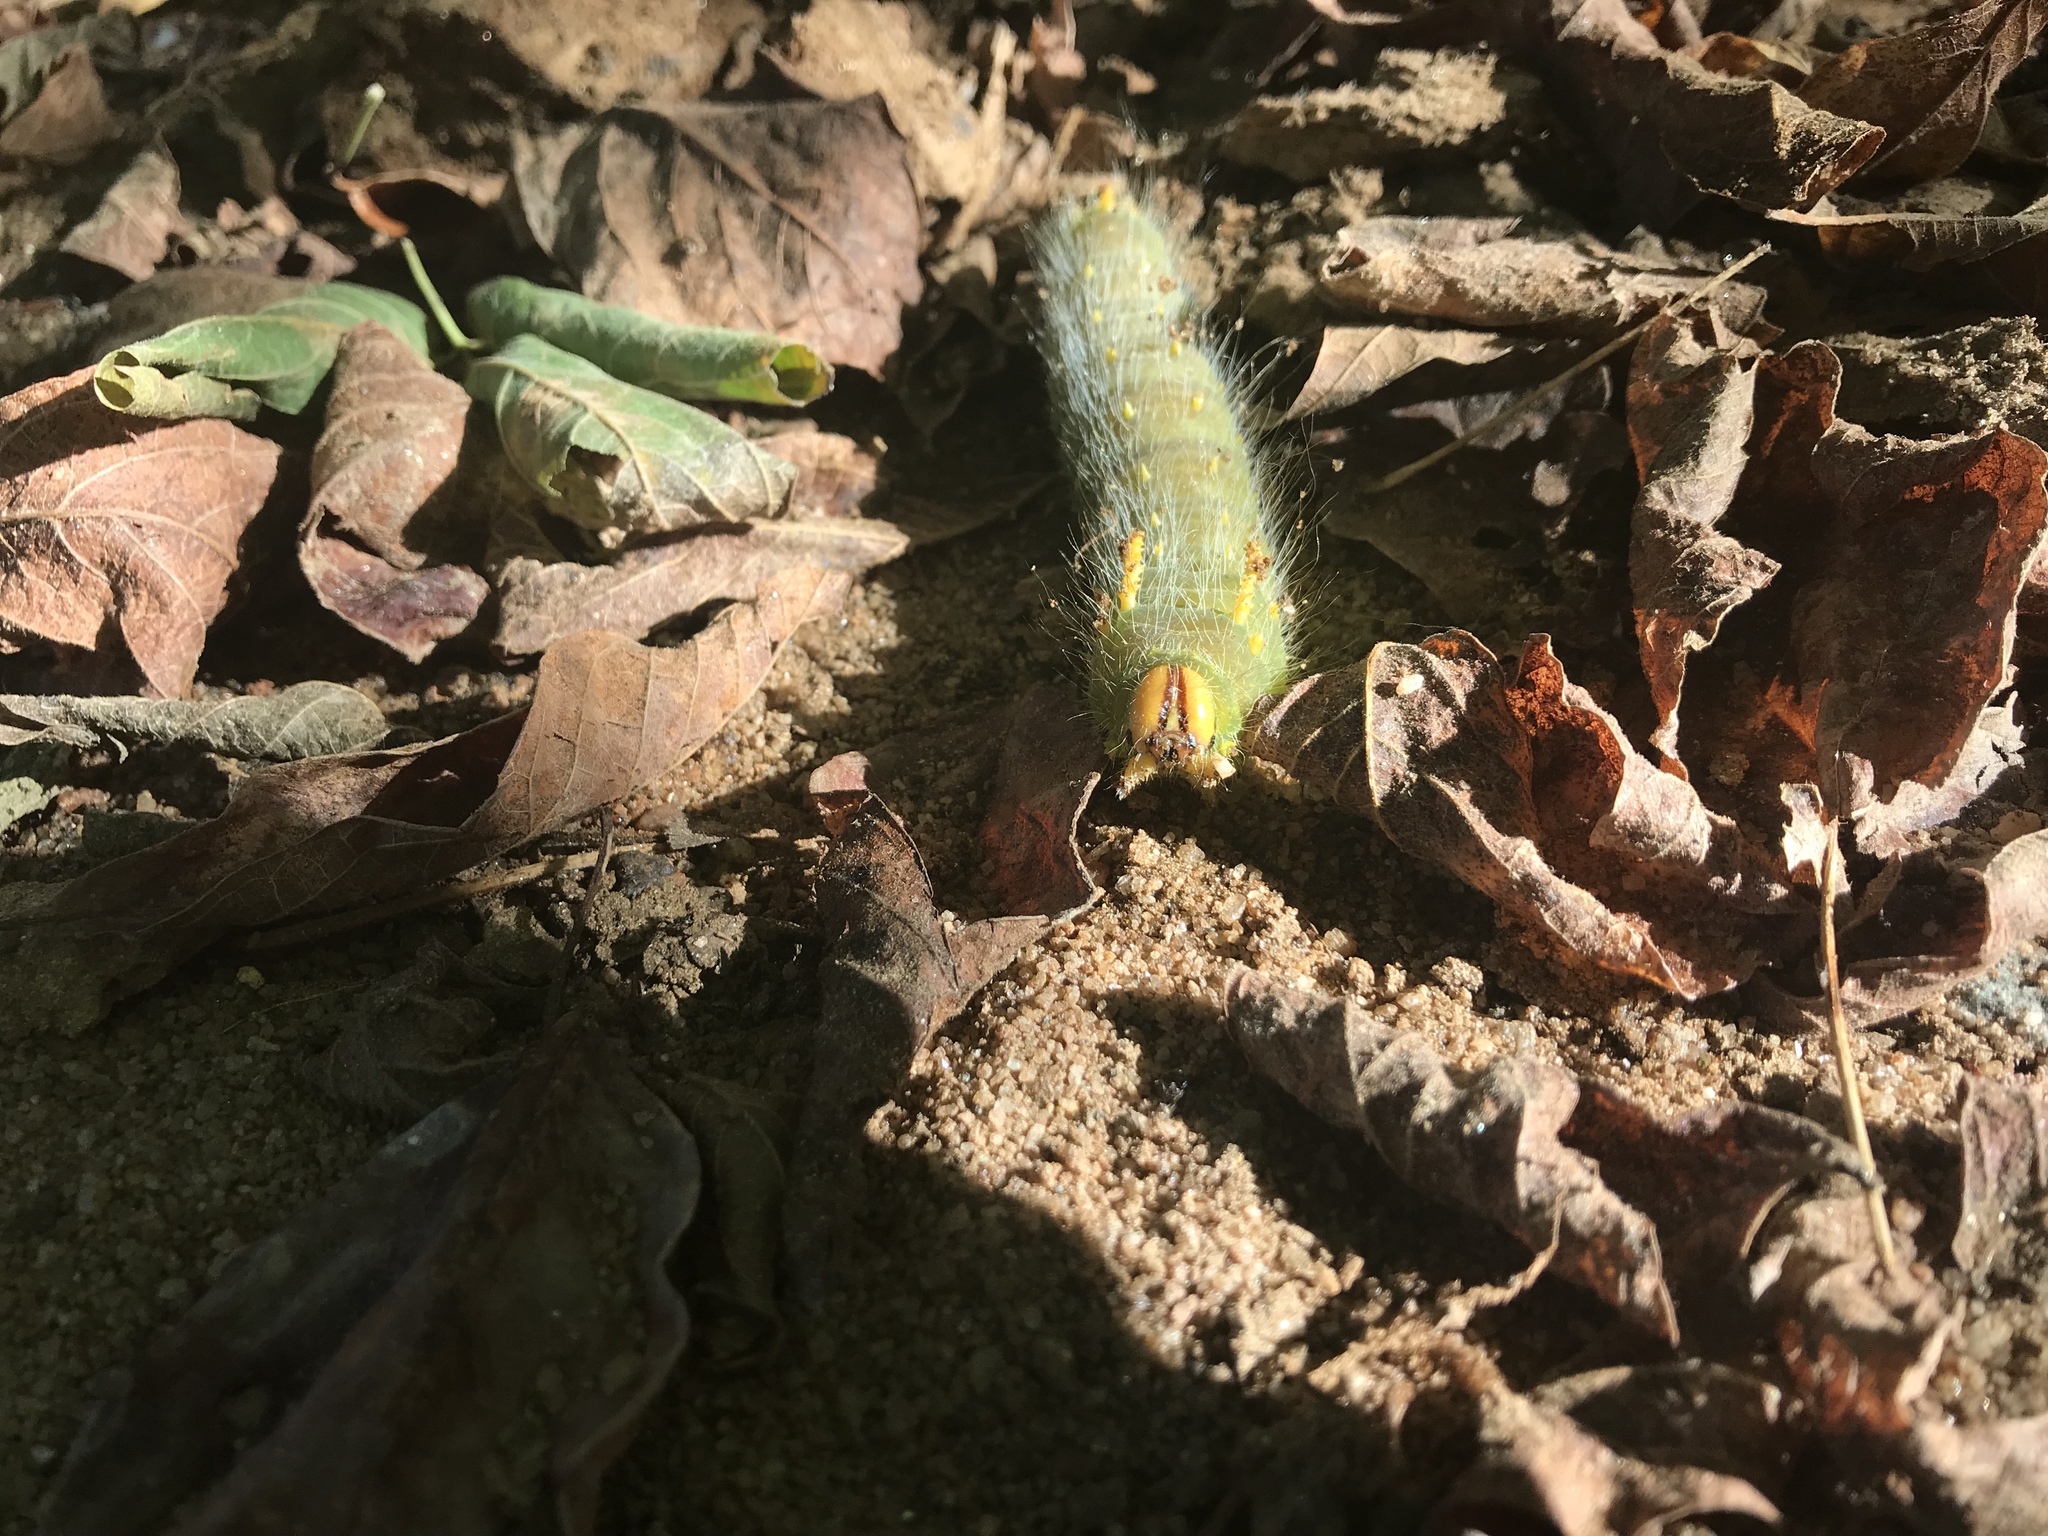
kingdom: Animalia
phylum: Arthropoda
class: Insecta
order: Lepidoptera
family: Saturniidae
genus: Eacles
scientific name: Eacles imperialis
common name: Imperial moth
